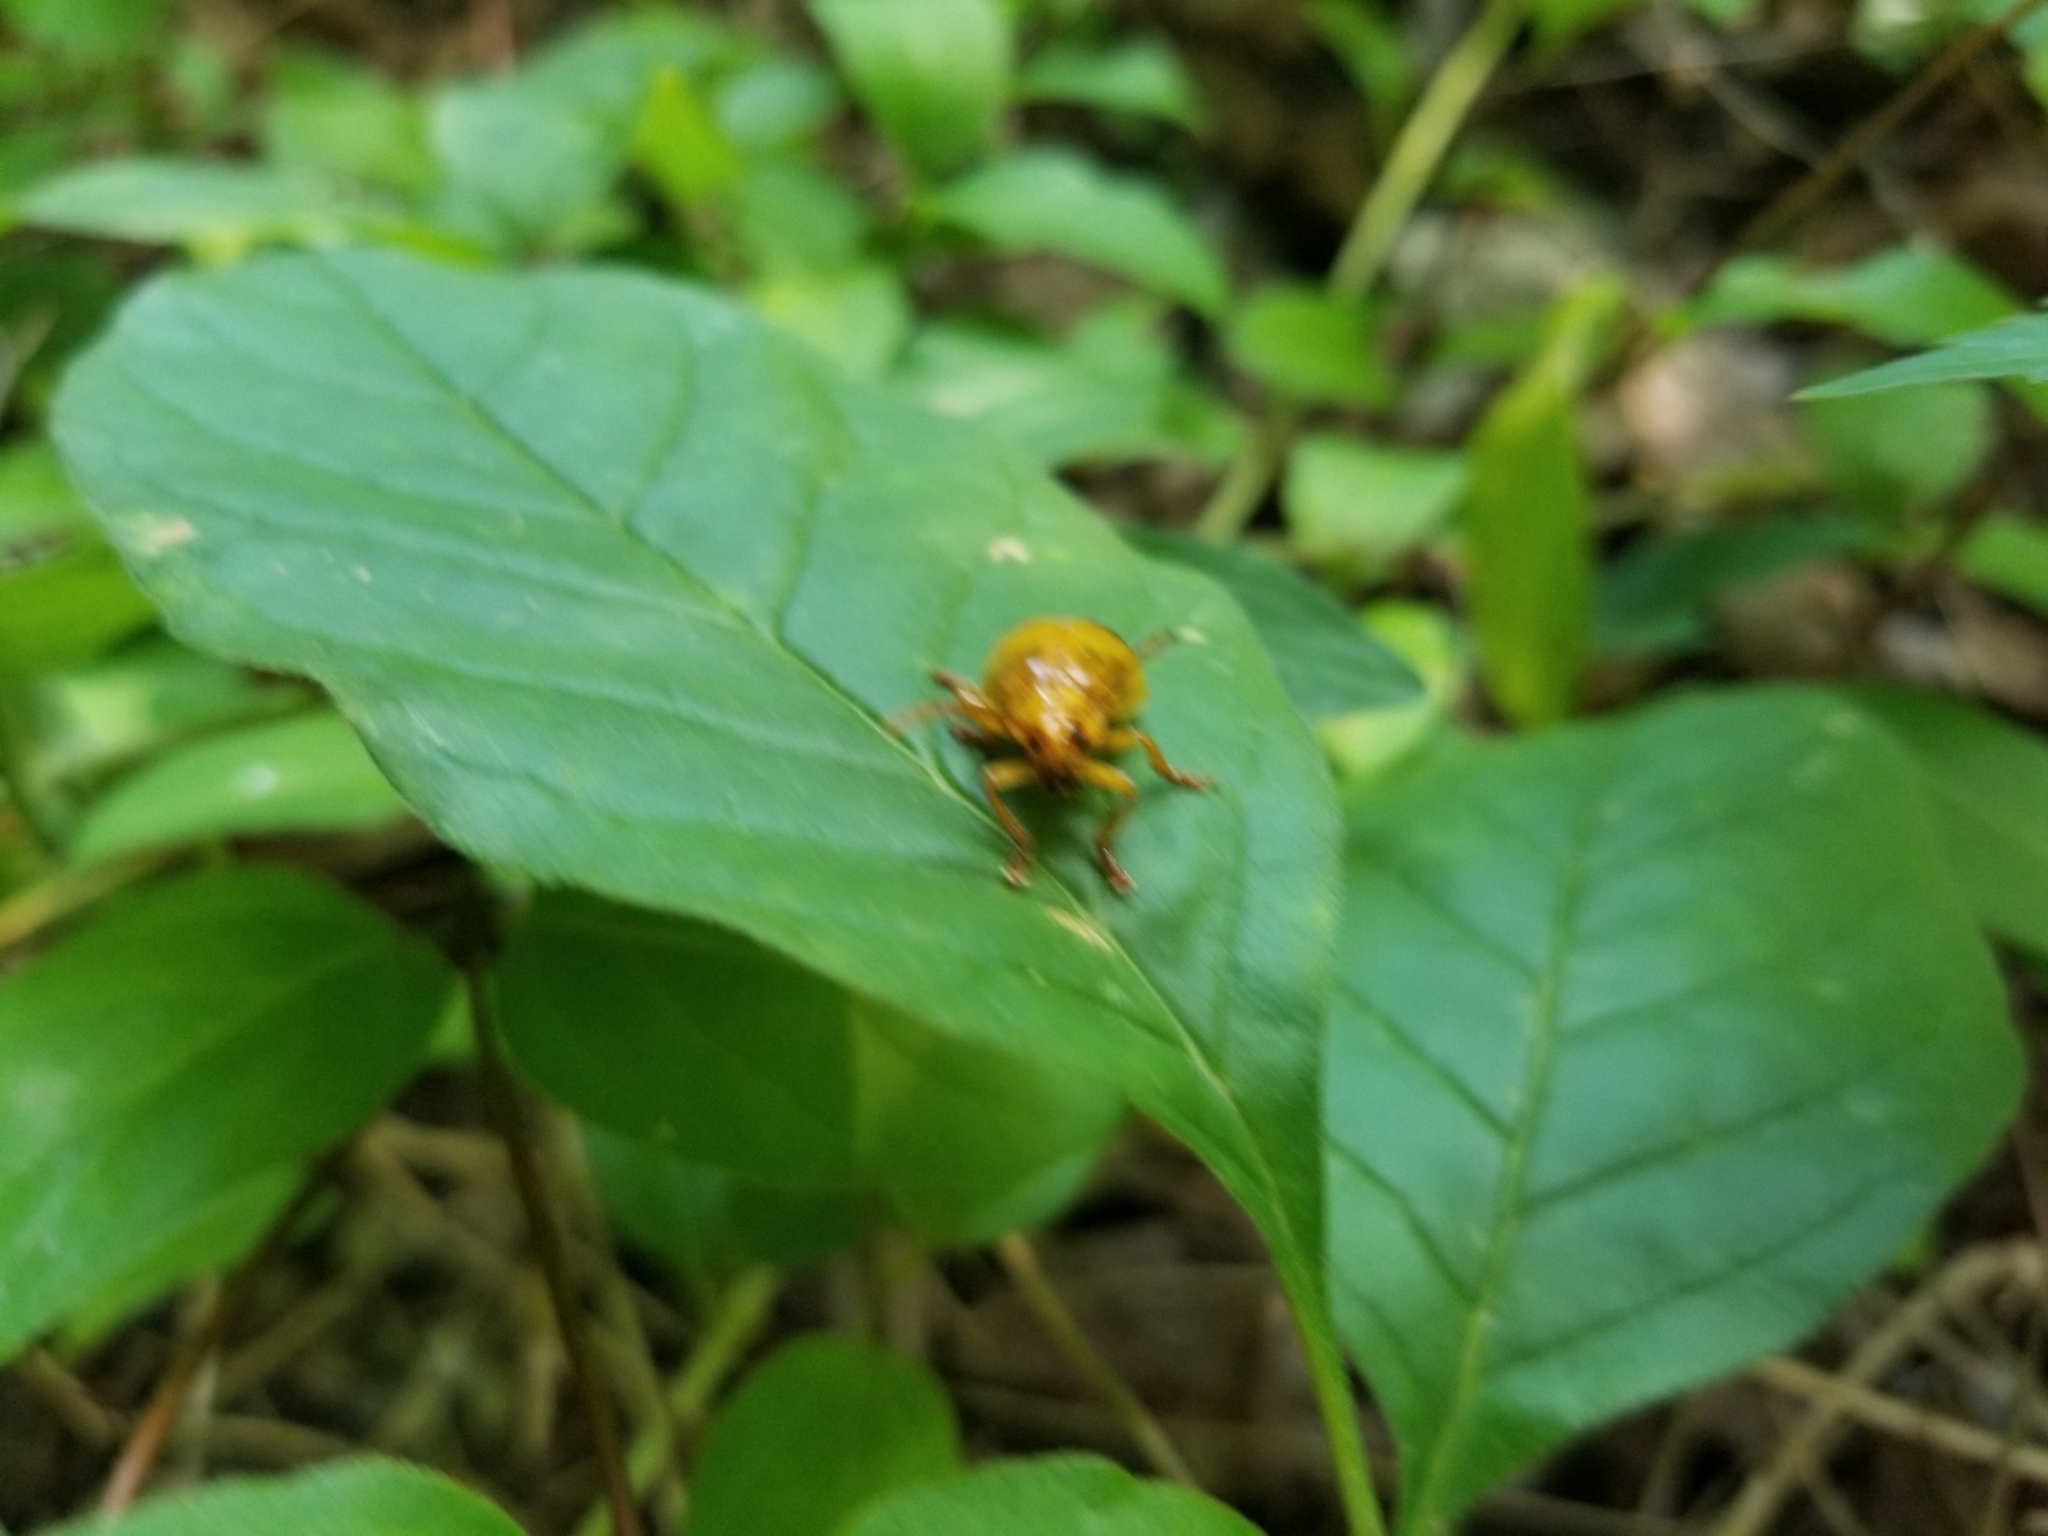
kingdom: Animalia
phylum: Arthropoda
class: Insecta
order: Coleoptera
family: Chrysomelidae
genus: Monocesta
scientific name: Monocesta coryli
